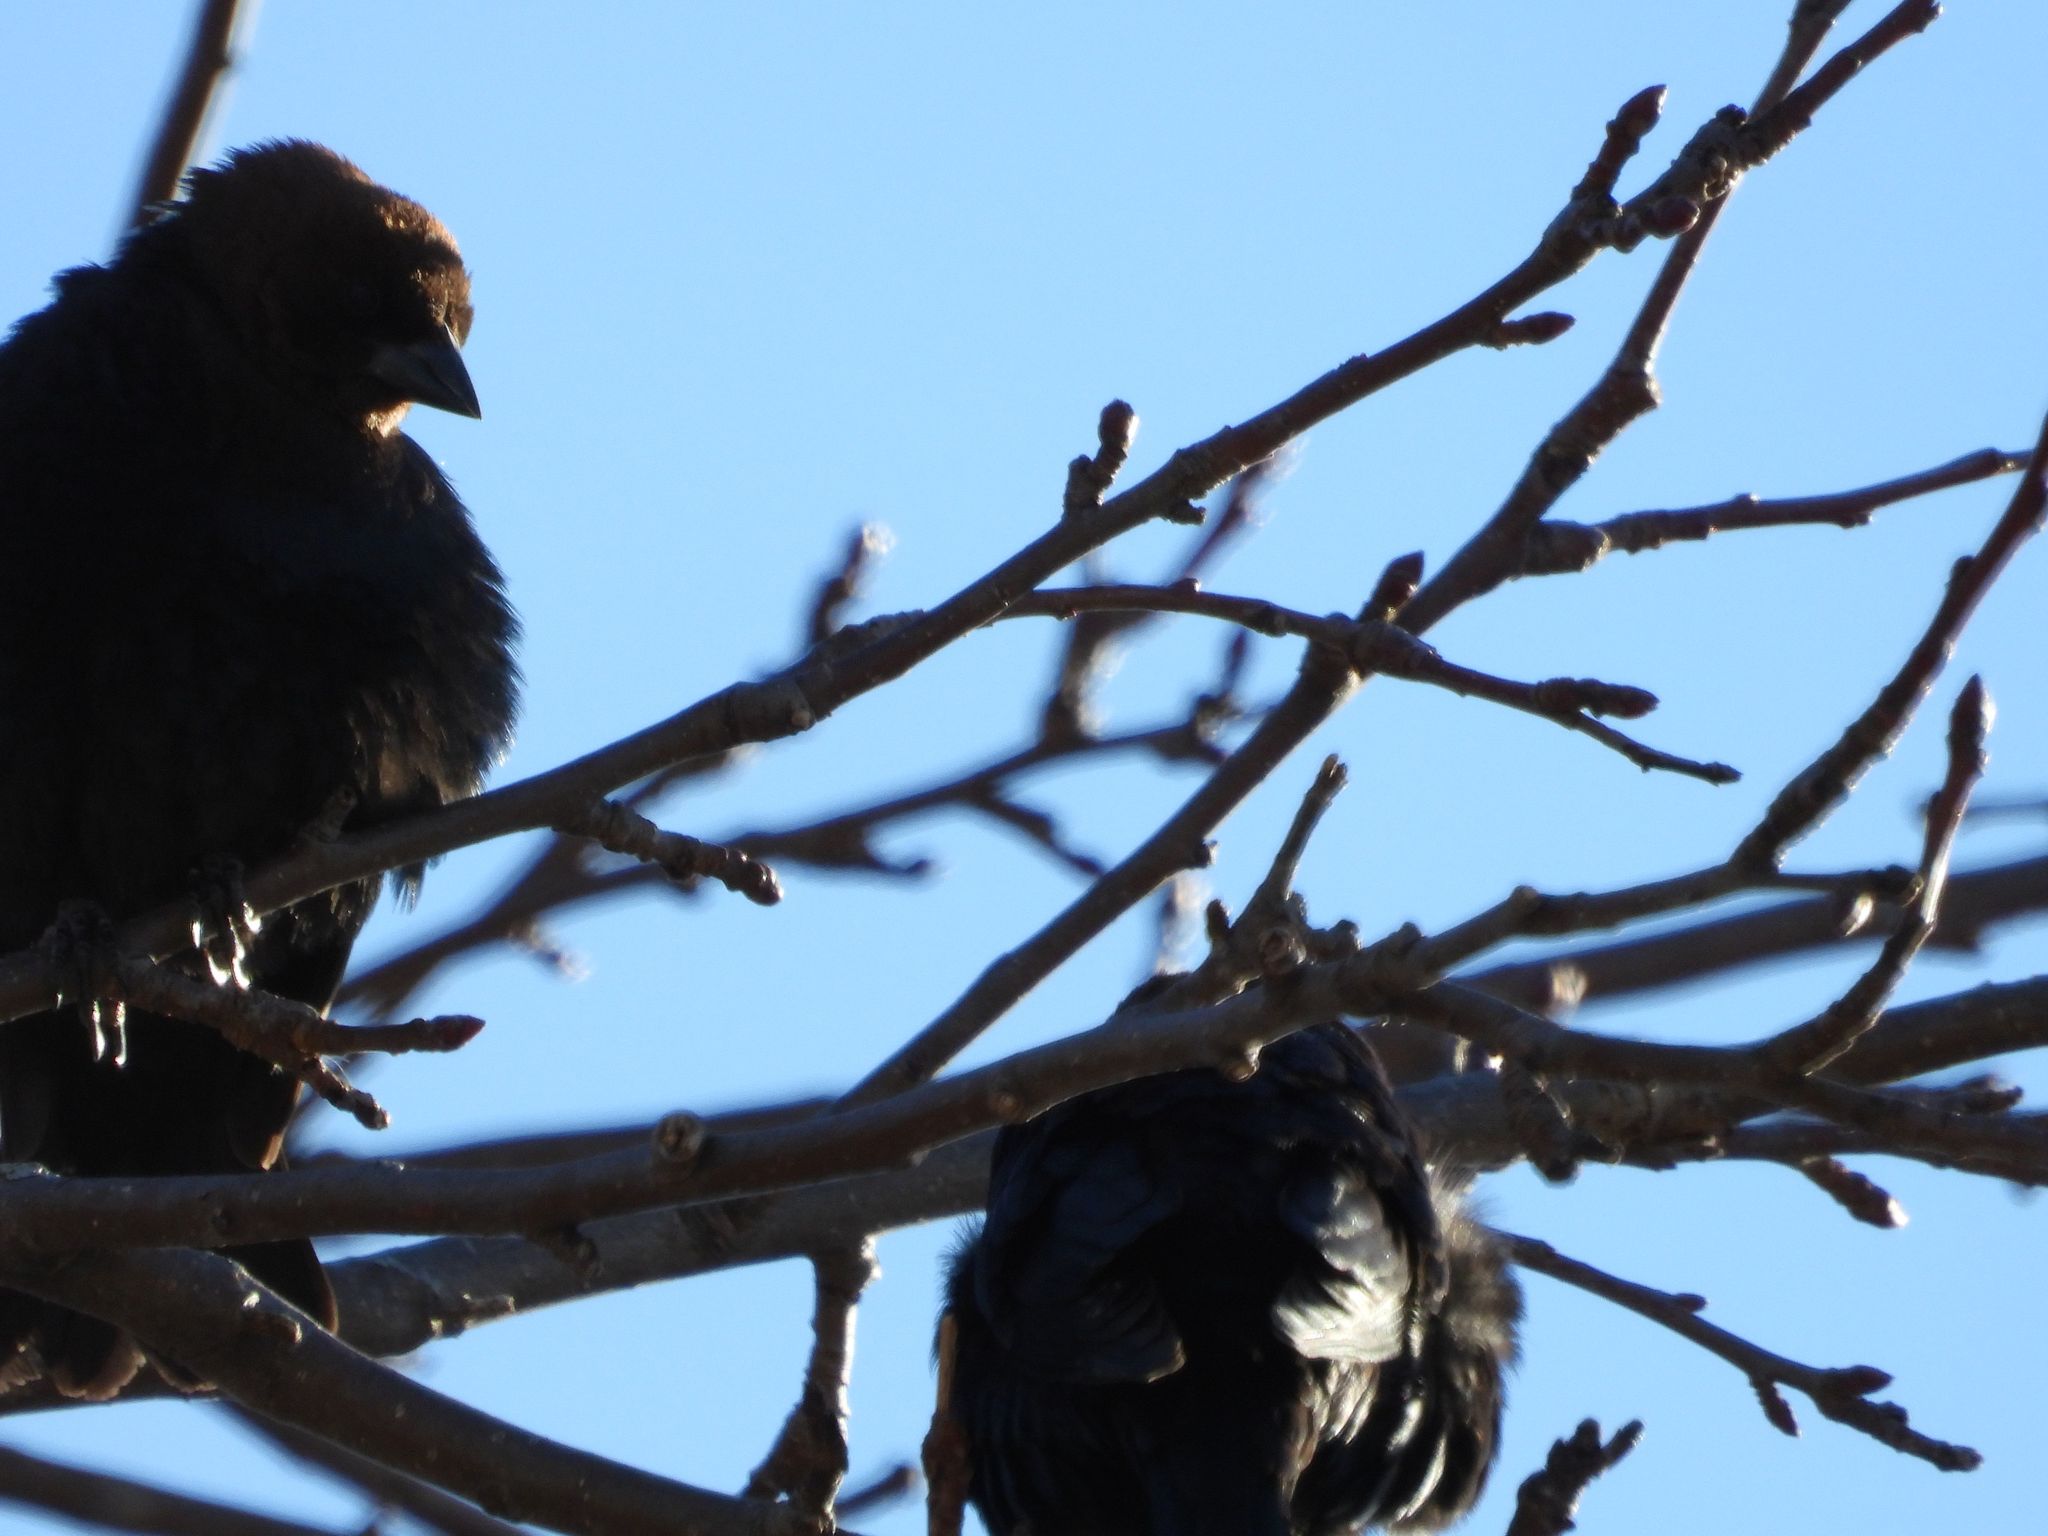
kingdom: Animalia
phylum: Chordata
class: Aves
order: Passeriformes
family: Icteridae
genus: Molothrus
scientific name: Molothrus ater
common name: Brown-headed cowbird
